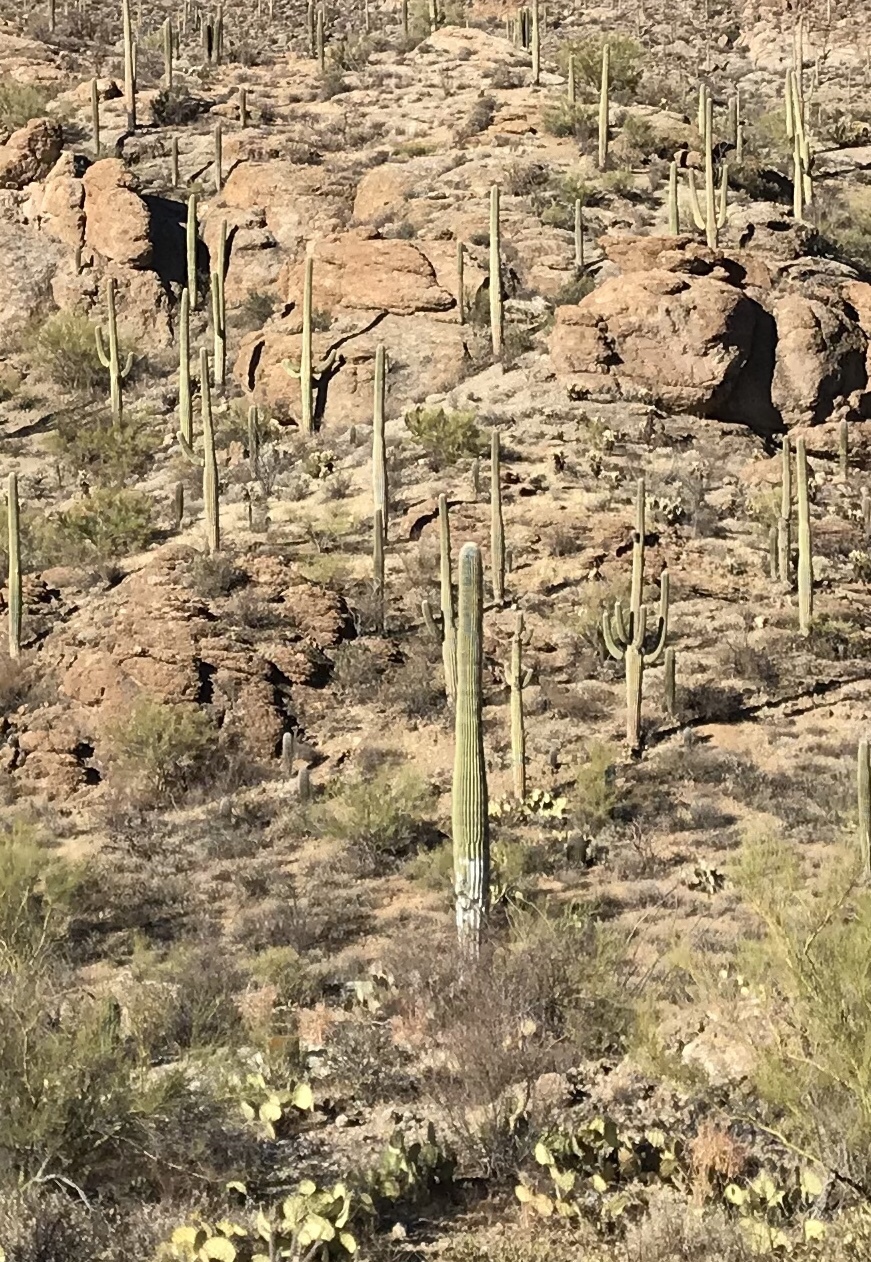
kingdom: Plantae
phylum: Tracheophyta
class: Magnoliopsida
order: Caryophyllales
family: Cactaceae
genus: Carnegiea
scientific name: Carnegiea gigantea
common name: Saguaro
